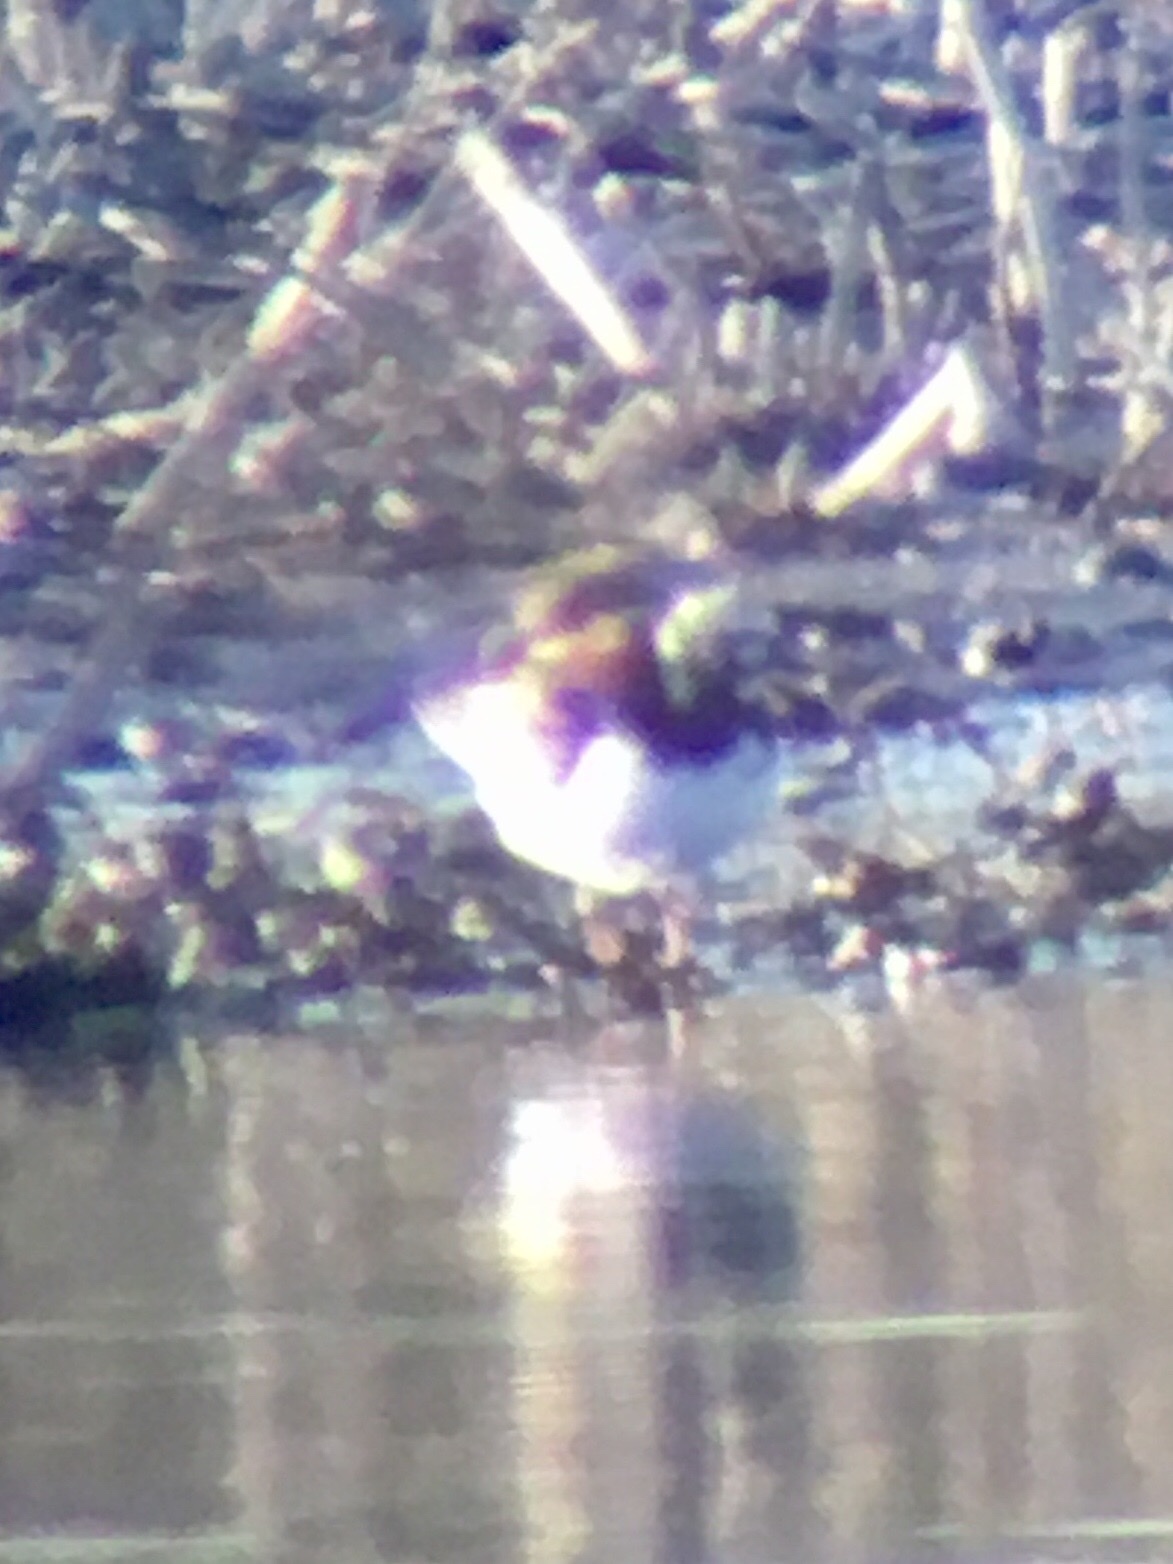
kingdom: Animalia
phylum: Chordata
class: Aves
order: Charadriiformes
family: Scolopacidae
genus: Arenaria
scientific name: Arenaria interpres
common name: Ruddy turnstone
